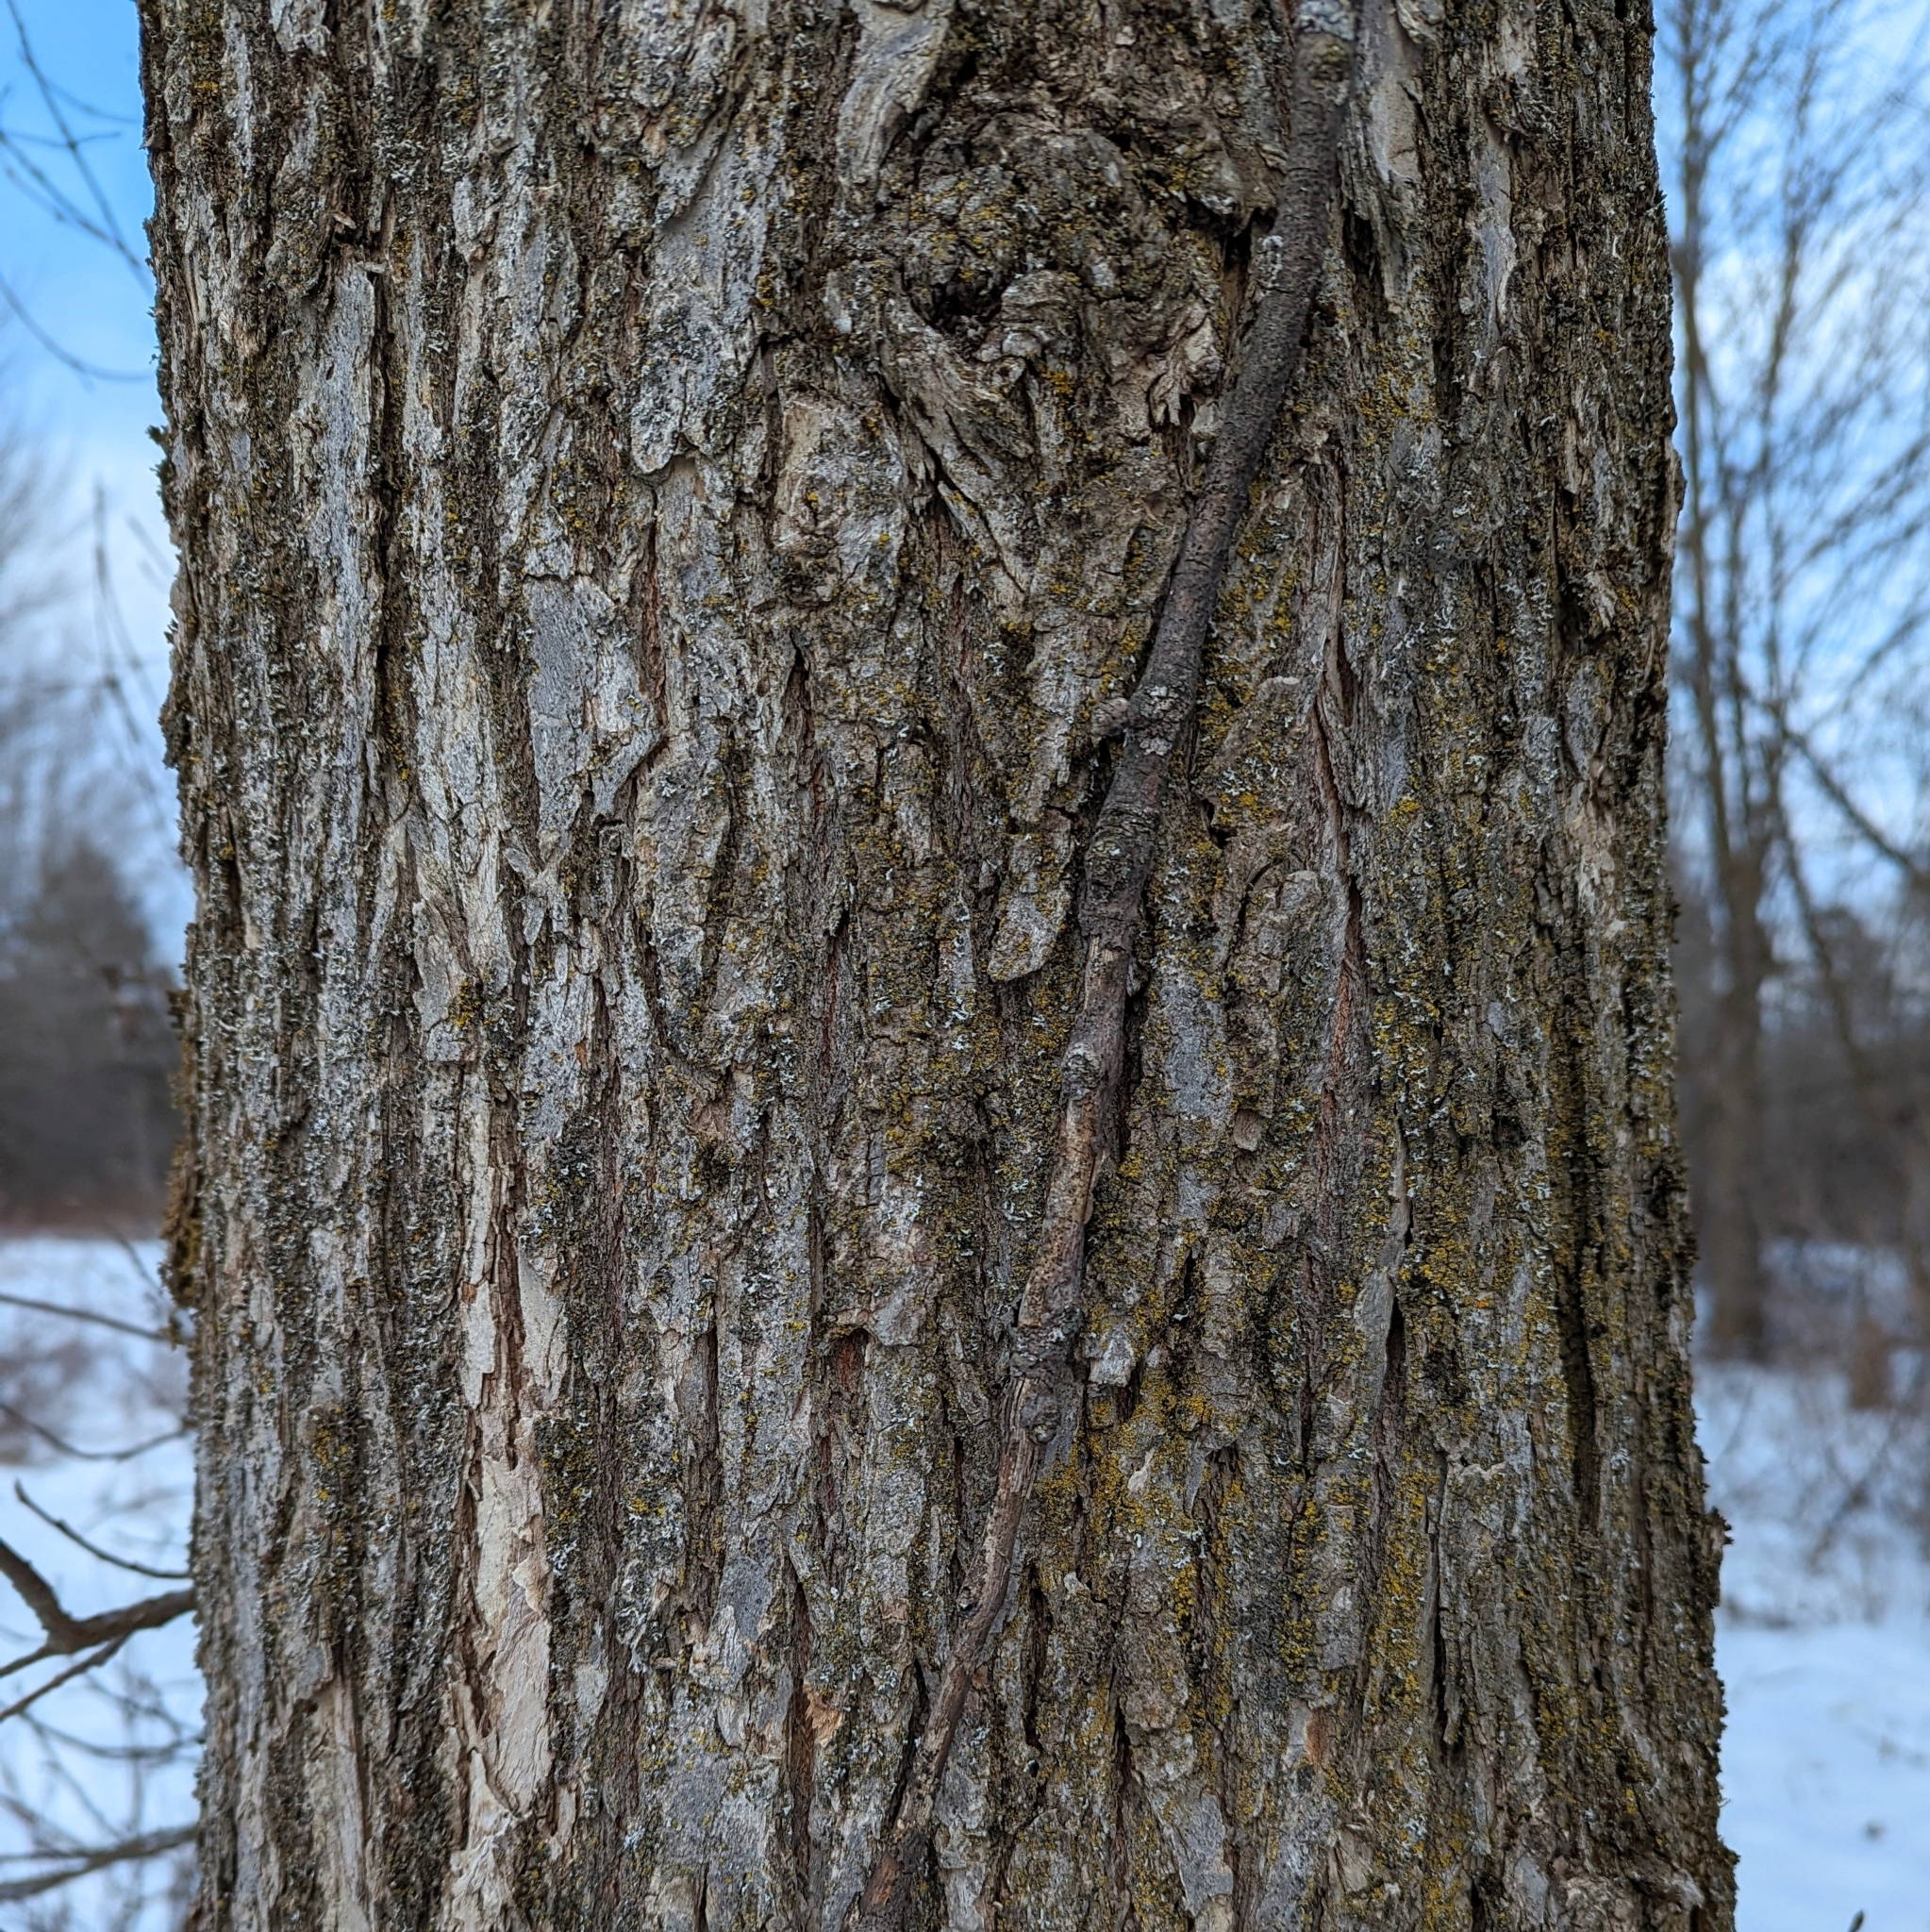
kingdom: Plantae
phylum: Tracheophyta
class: Magnoliopsida
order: Rosales
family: Ulmaceae
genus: Ulmus
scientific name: Ulmus americana
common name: American elm
